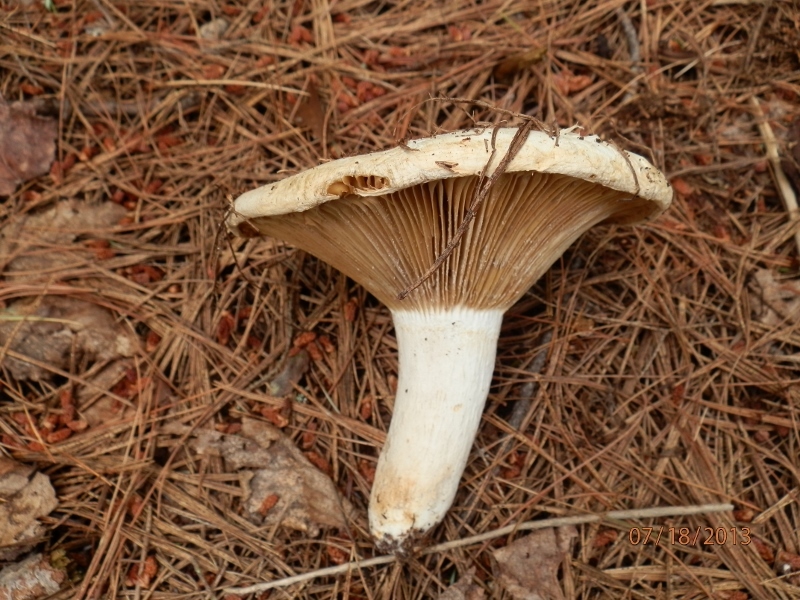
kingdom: Fungi
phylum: Basidiomycota
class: Agaricomycetes
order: Russulales
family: Russulaceae
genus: Lactifluus
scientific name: Lactifluus
